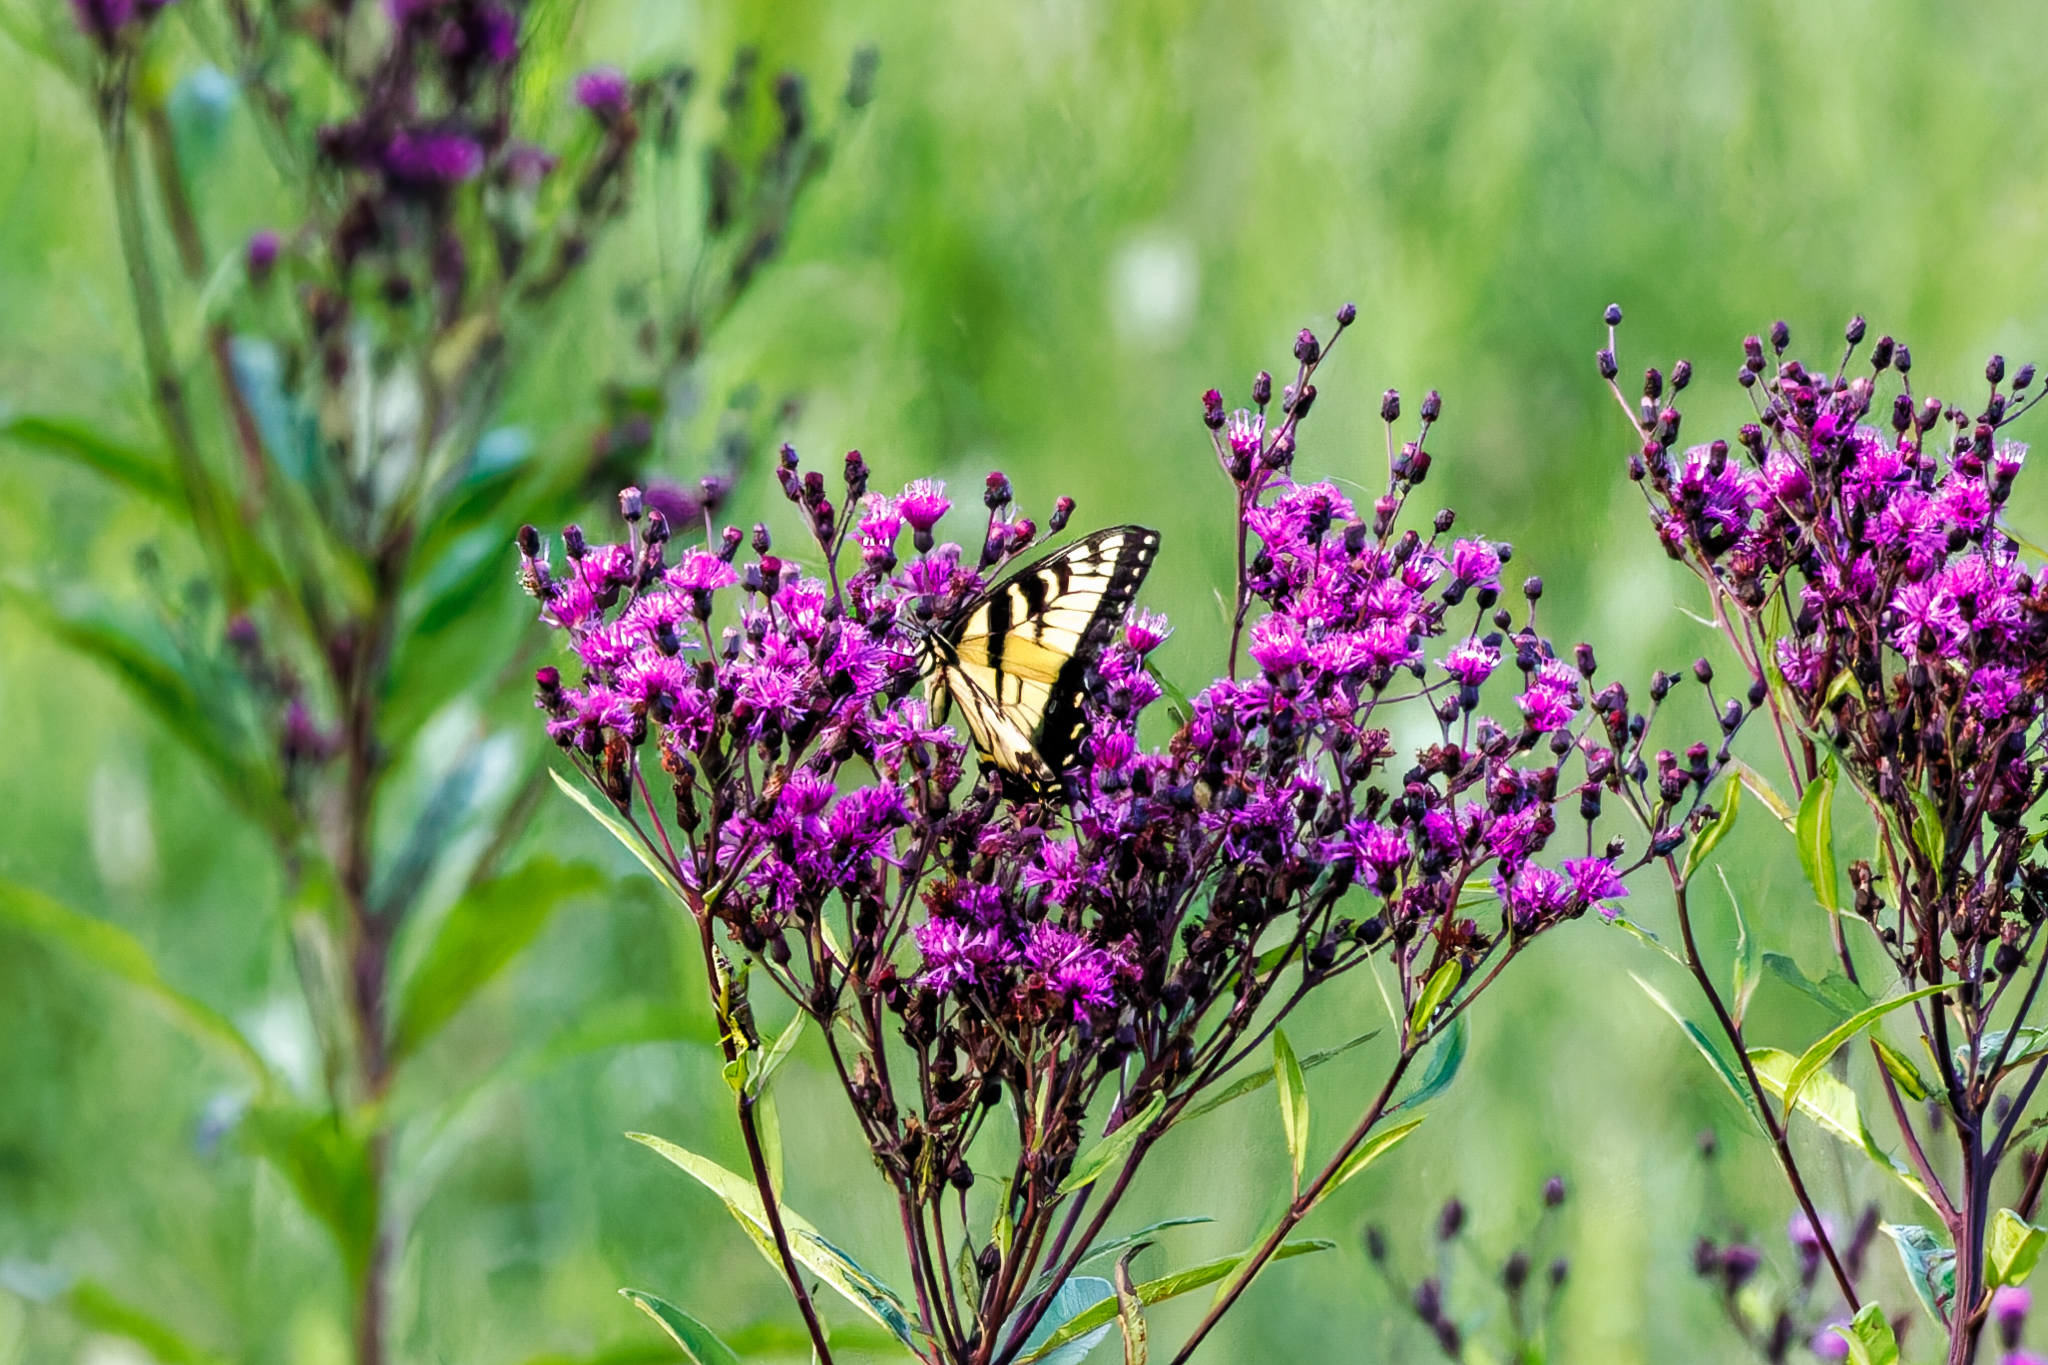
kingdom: Animalia
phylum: Arthropoda
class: Insecta
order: Lepidoptera
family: Papilionidae
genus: Papilio
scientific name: Papilio glaucus
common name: Tiger swallowtail
